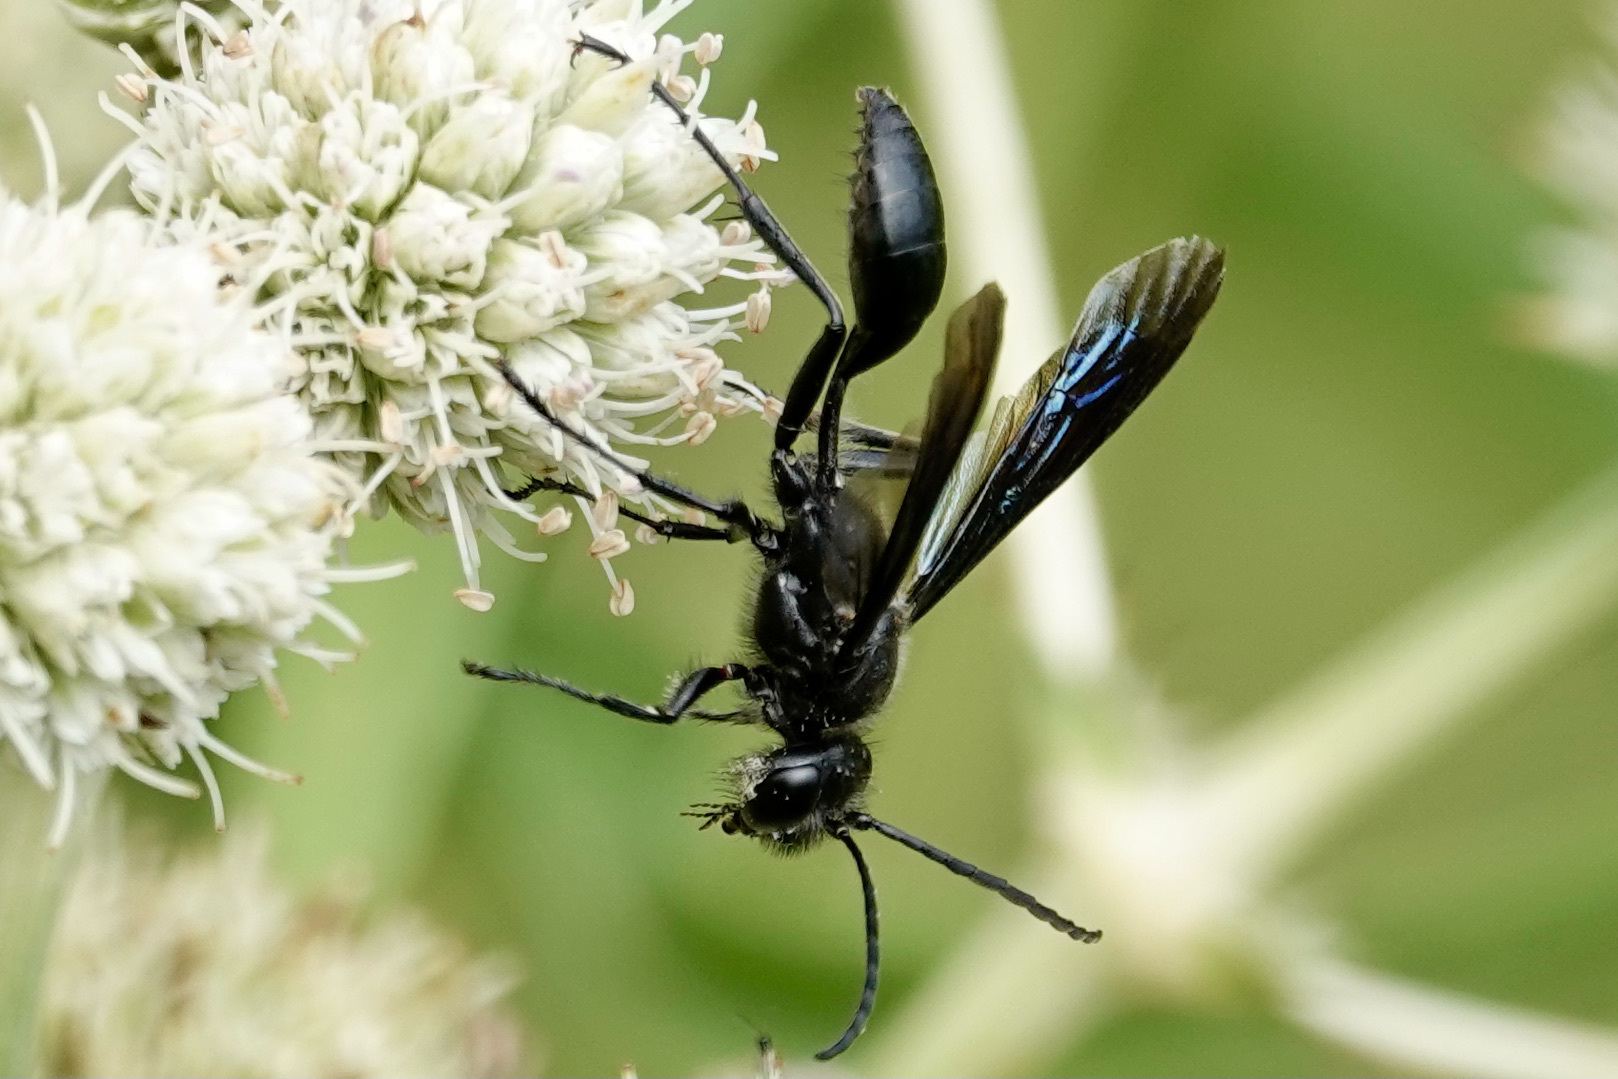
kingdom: Animalia
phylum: Arthropoda
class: Insecta
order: Hymenoptera
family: Sphecidae
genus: Isodontia
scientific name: Isodontia philadelphica
